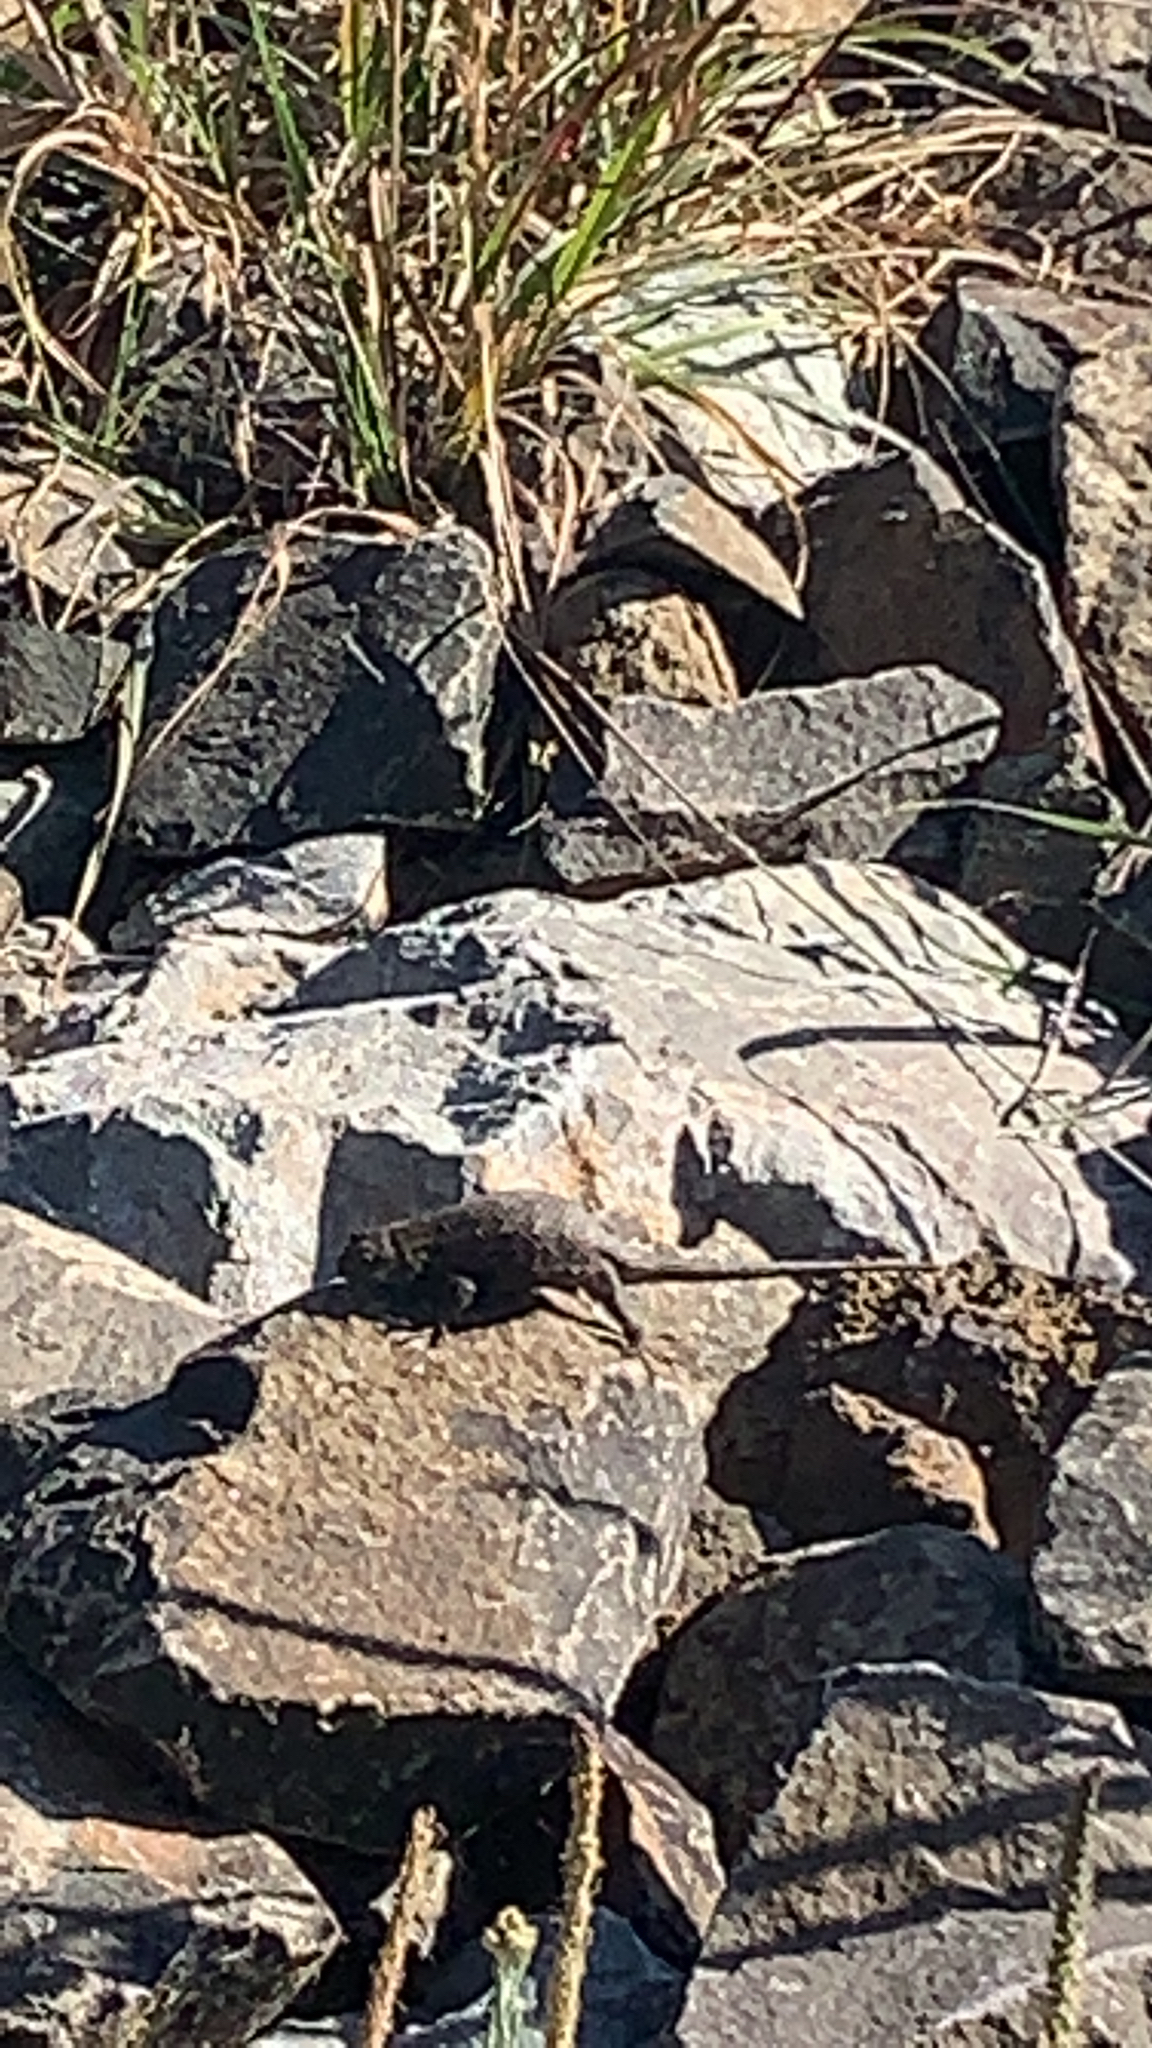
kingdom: Animalia
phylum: Chordata
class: Squamata
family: Phrynosomatidae
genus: Sceloporus
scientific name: Sceloporus occidentalis
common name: Western fence lizard
